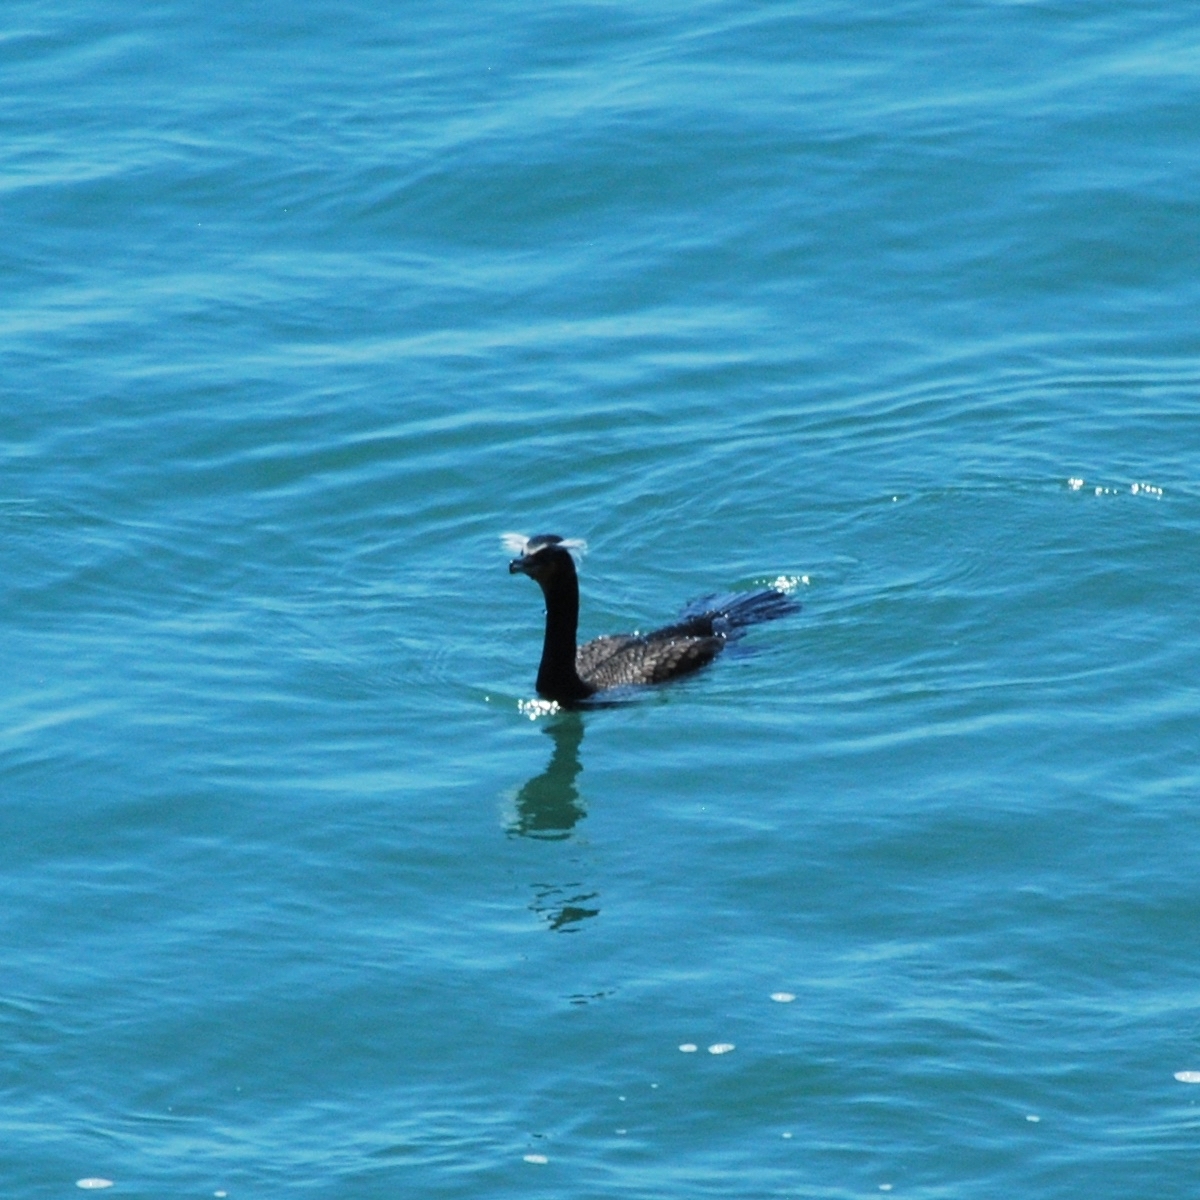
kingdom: Animalia
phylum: Chordata
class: Aves
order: Suliformes
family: Phalacrocoracidae
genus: Phalacrocorax
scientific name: Phalacrocorax auritus
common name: Double-crested cormorant
